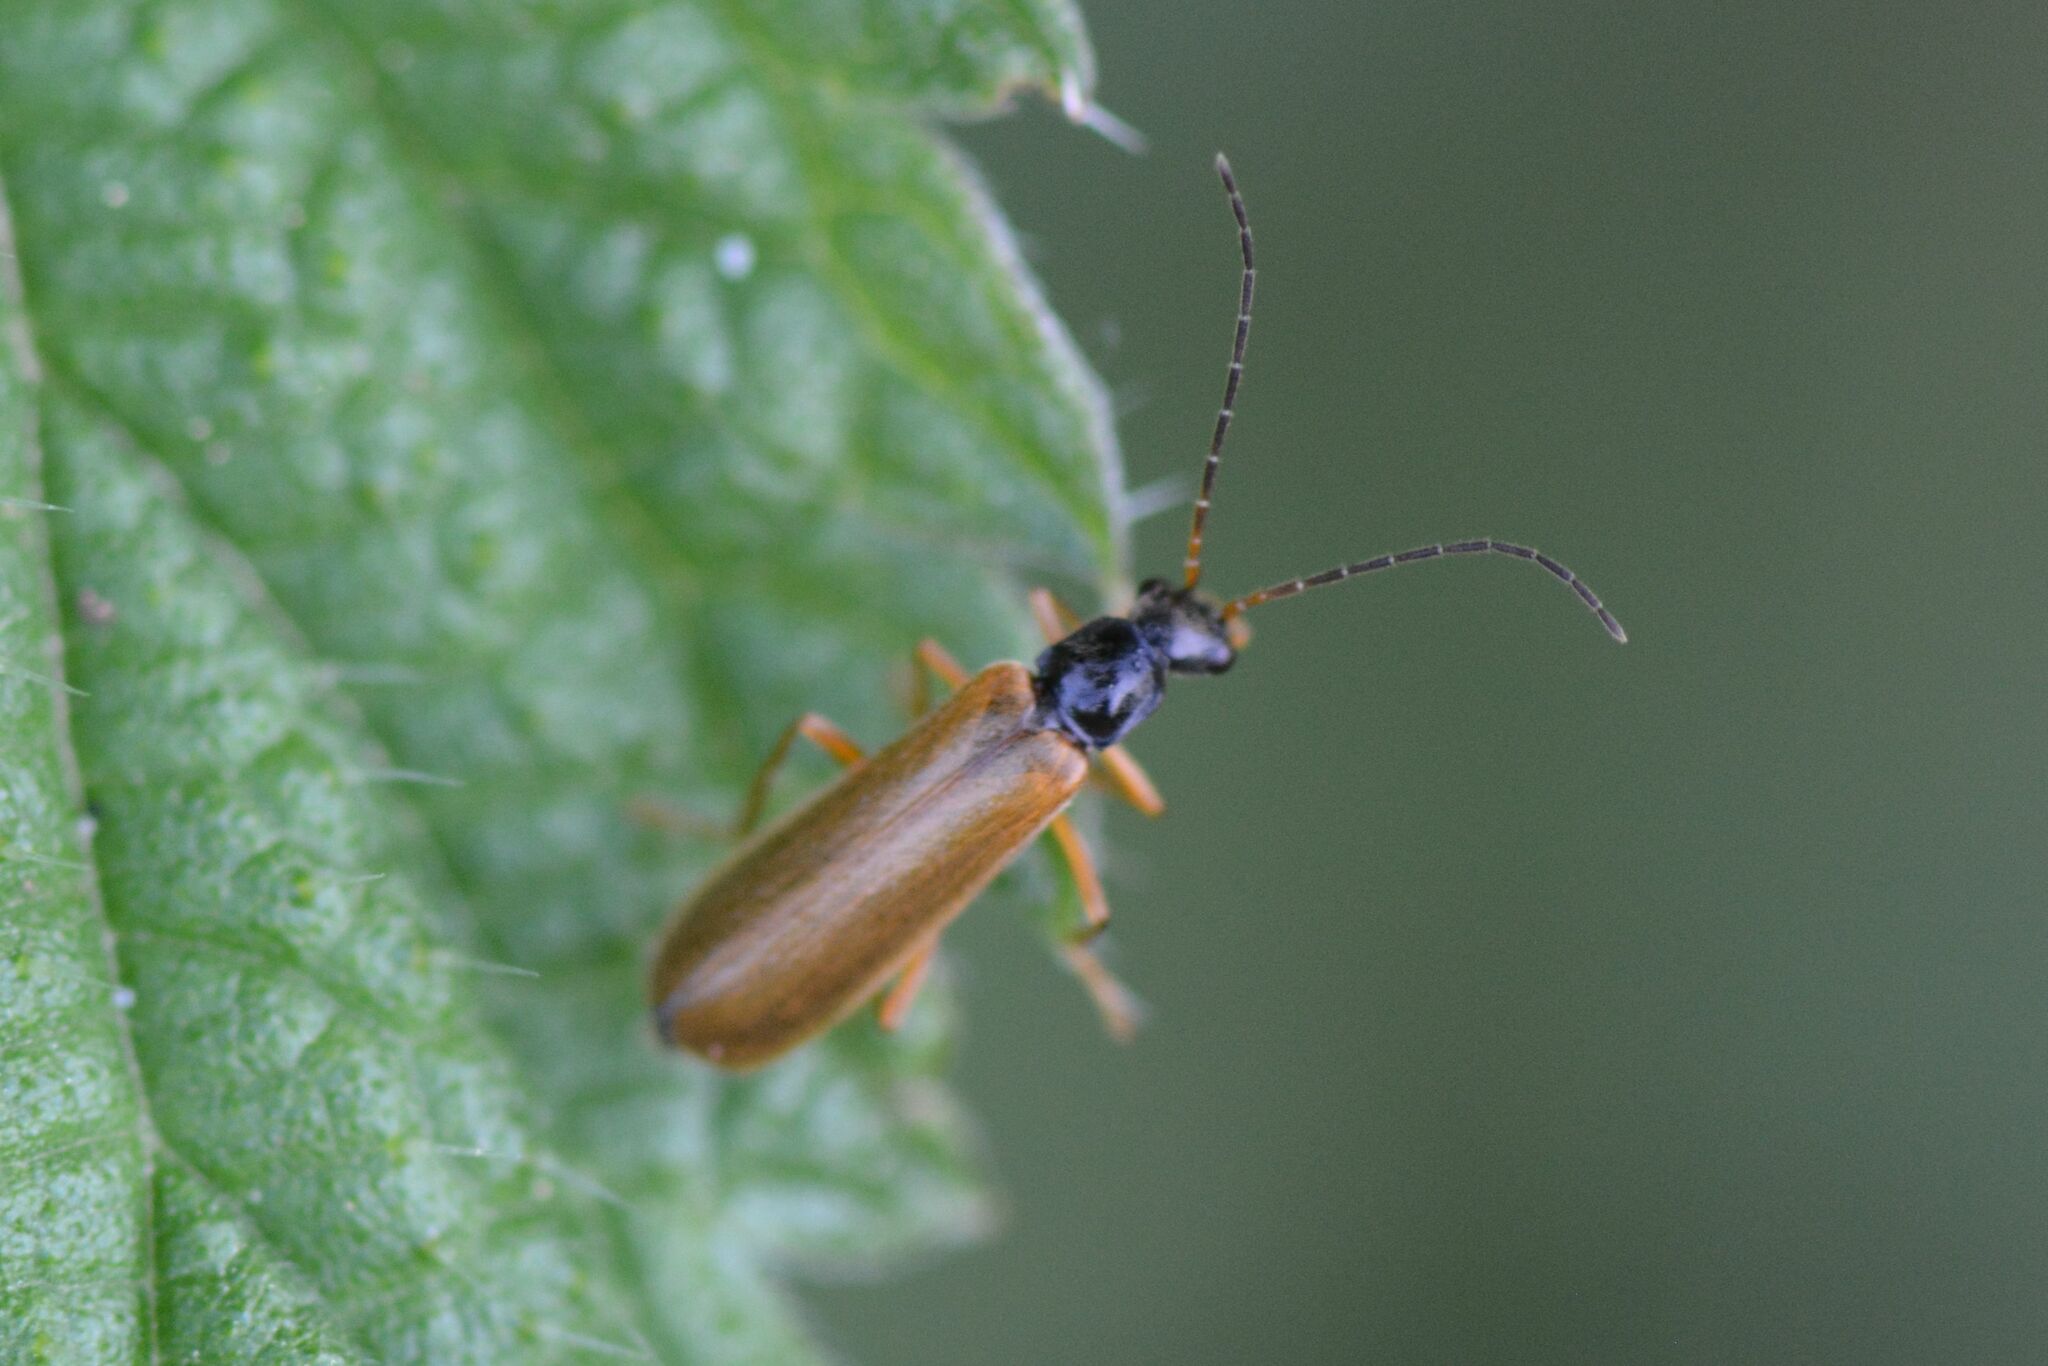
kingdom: Animalia
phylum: Arthropoda
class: Insecta
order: Coleoptera
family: Cantharidae
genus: Rhagonycha
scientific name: Rhagonycha lignosa
